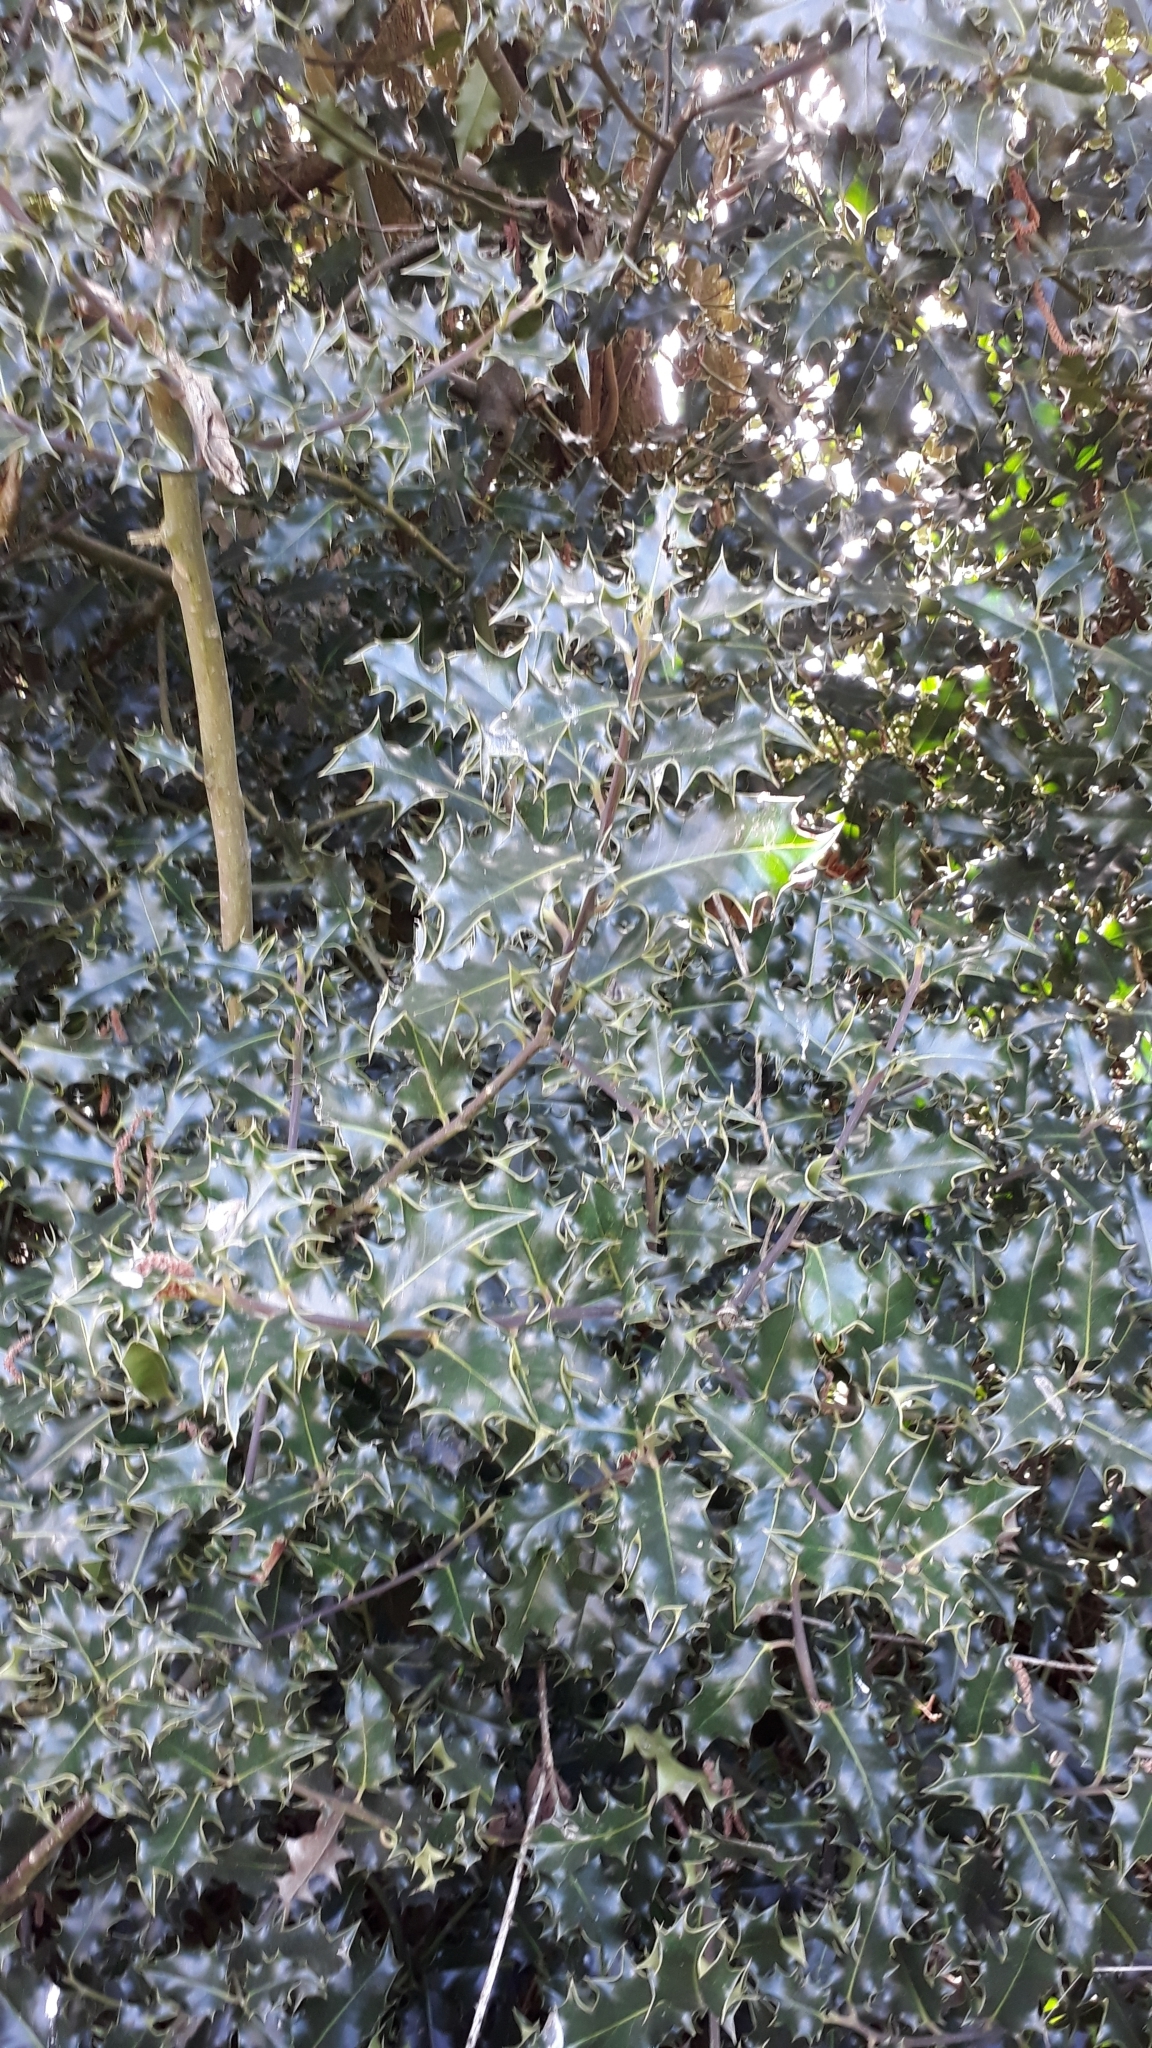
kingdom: Plantae
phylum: Tracheophyta
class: Magnoliopsida
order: Aquifoliales
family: Aquifoliaceae
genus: Ilex
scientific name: Ilex aquifolium
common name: English holly
